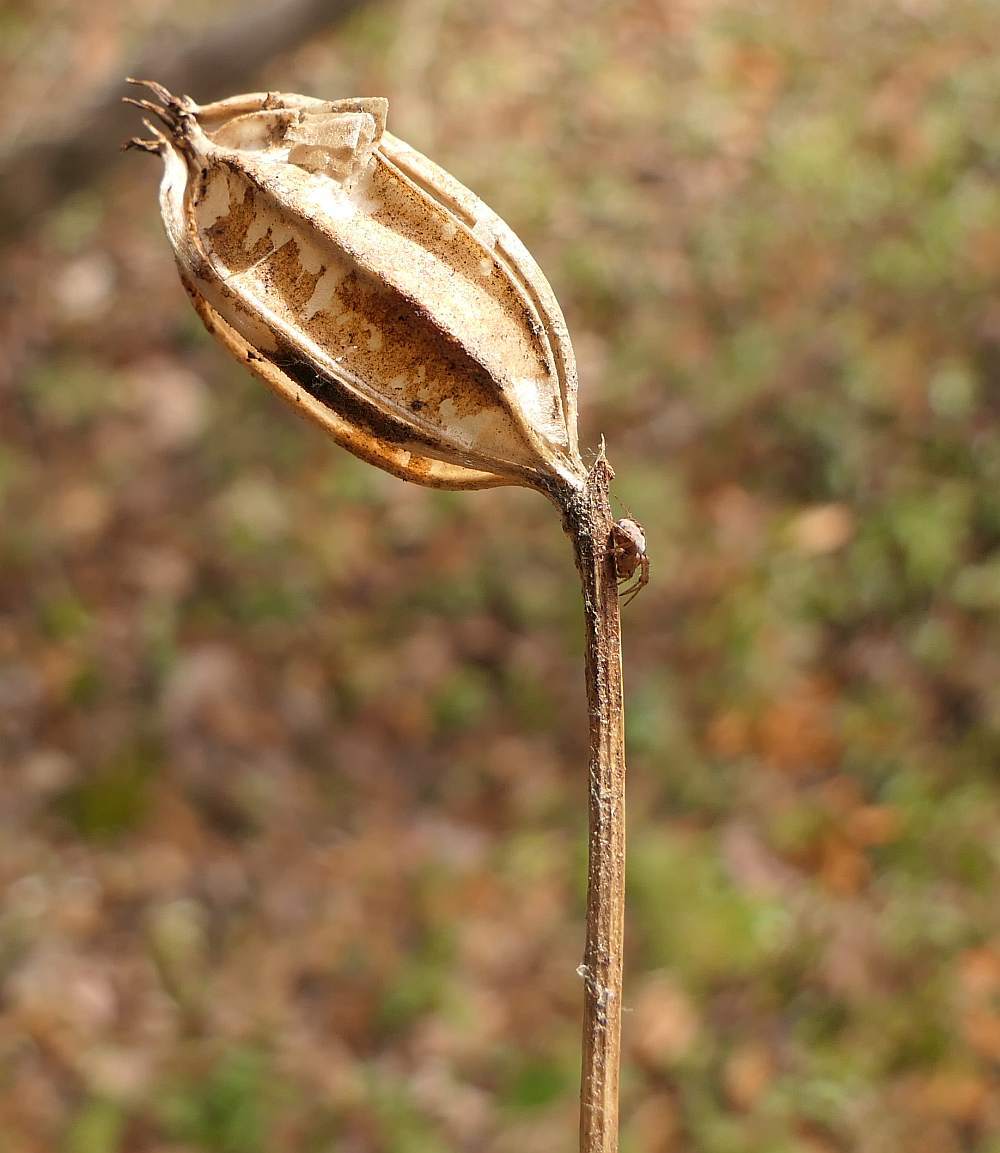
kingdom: Plantae
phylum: Tracheophyta
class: Liliopsida
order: Asparagales
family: Orchidaceae
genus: Cypripedium
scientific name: Cypripedium acaule
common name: Pink lady's-slipper
